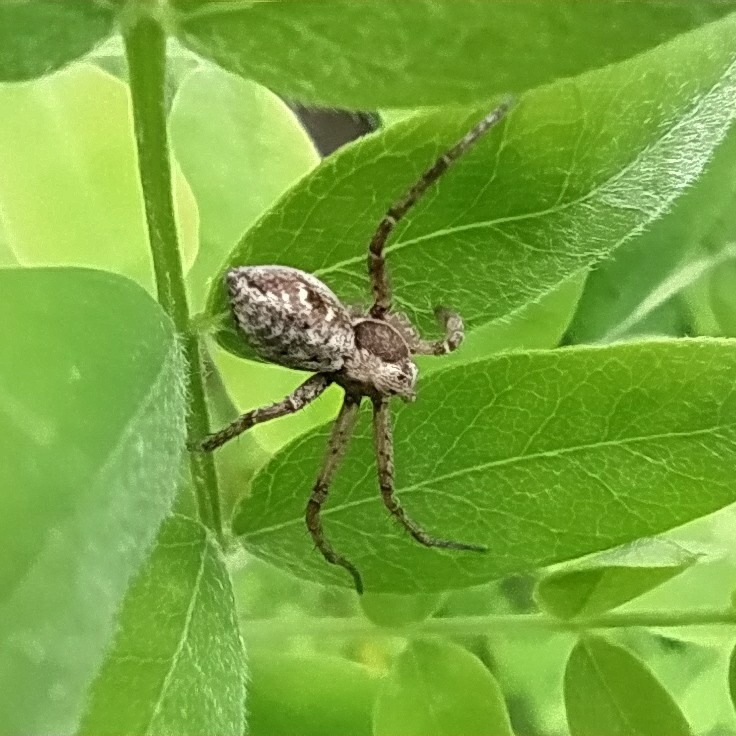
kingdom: Animalia
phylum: Arthropoda
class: Arachnida
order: Araneae
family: Philodromidae
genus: Rhysodromus
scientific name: Rhysodromus histrio
